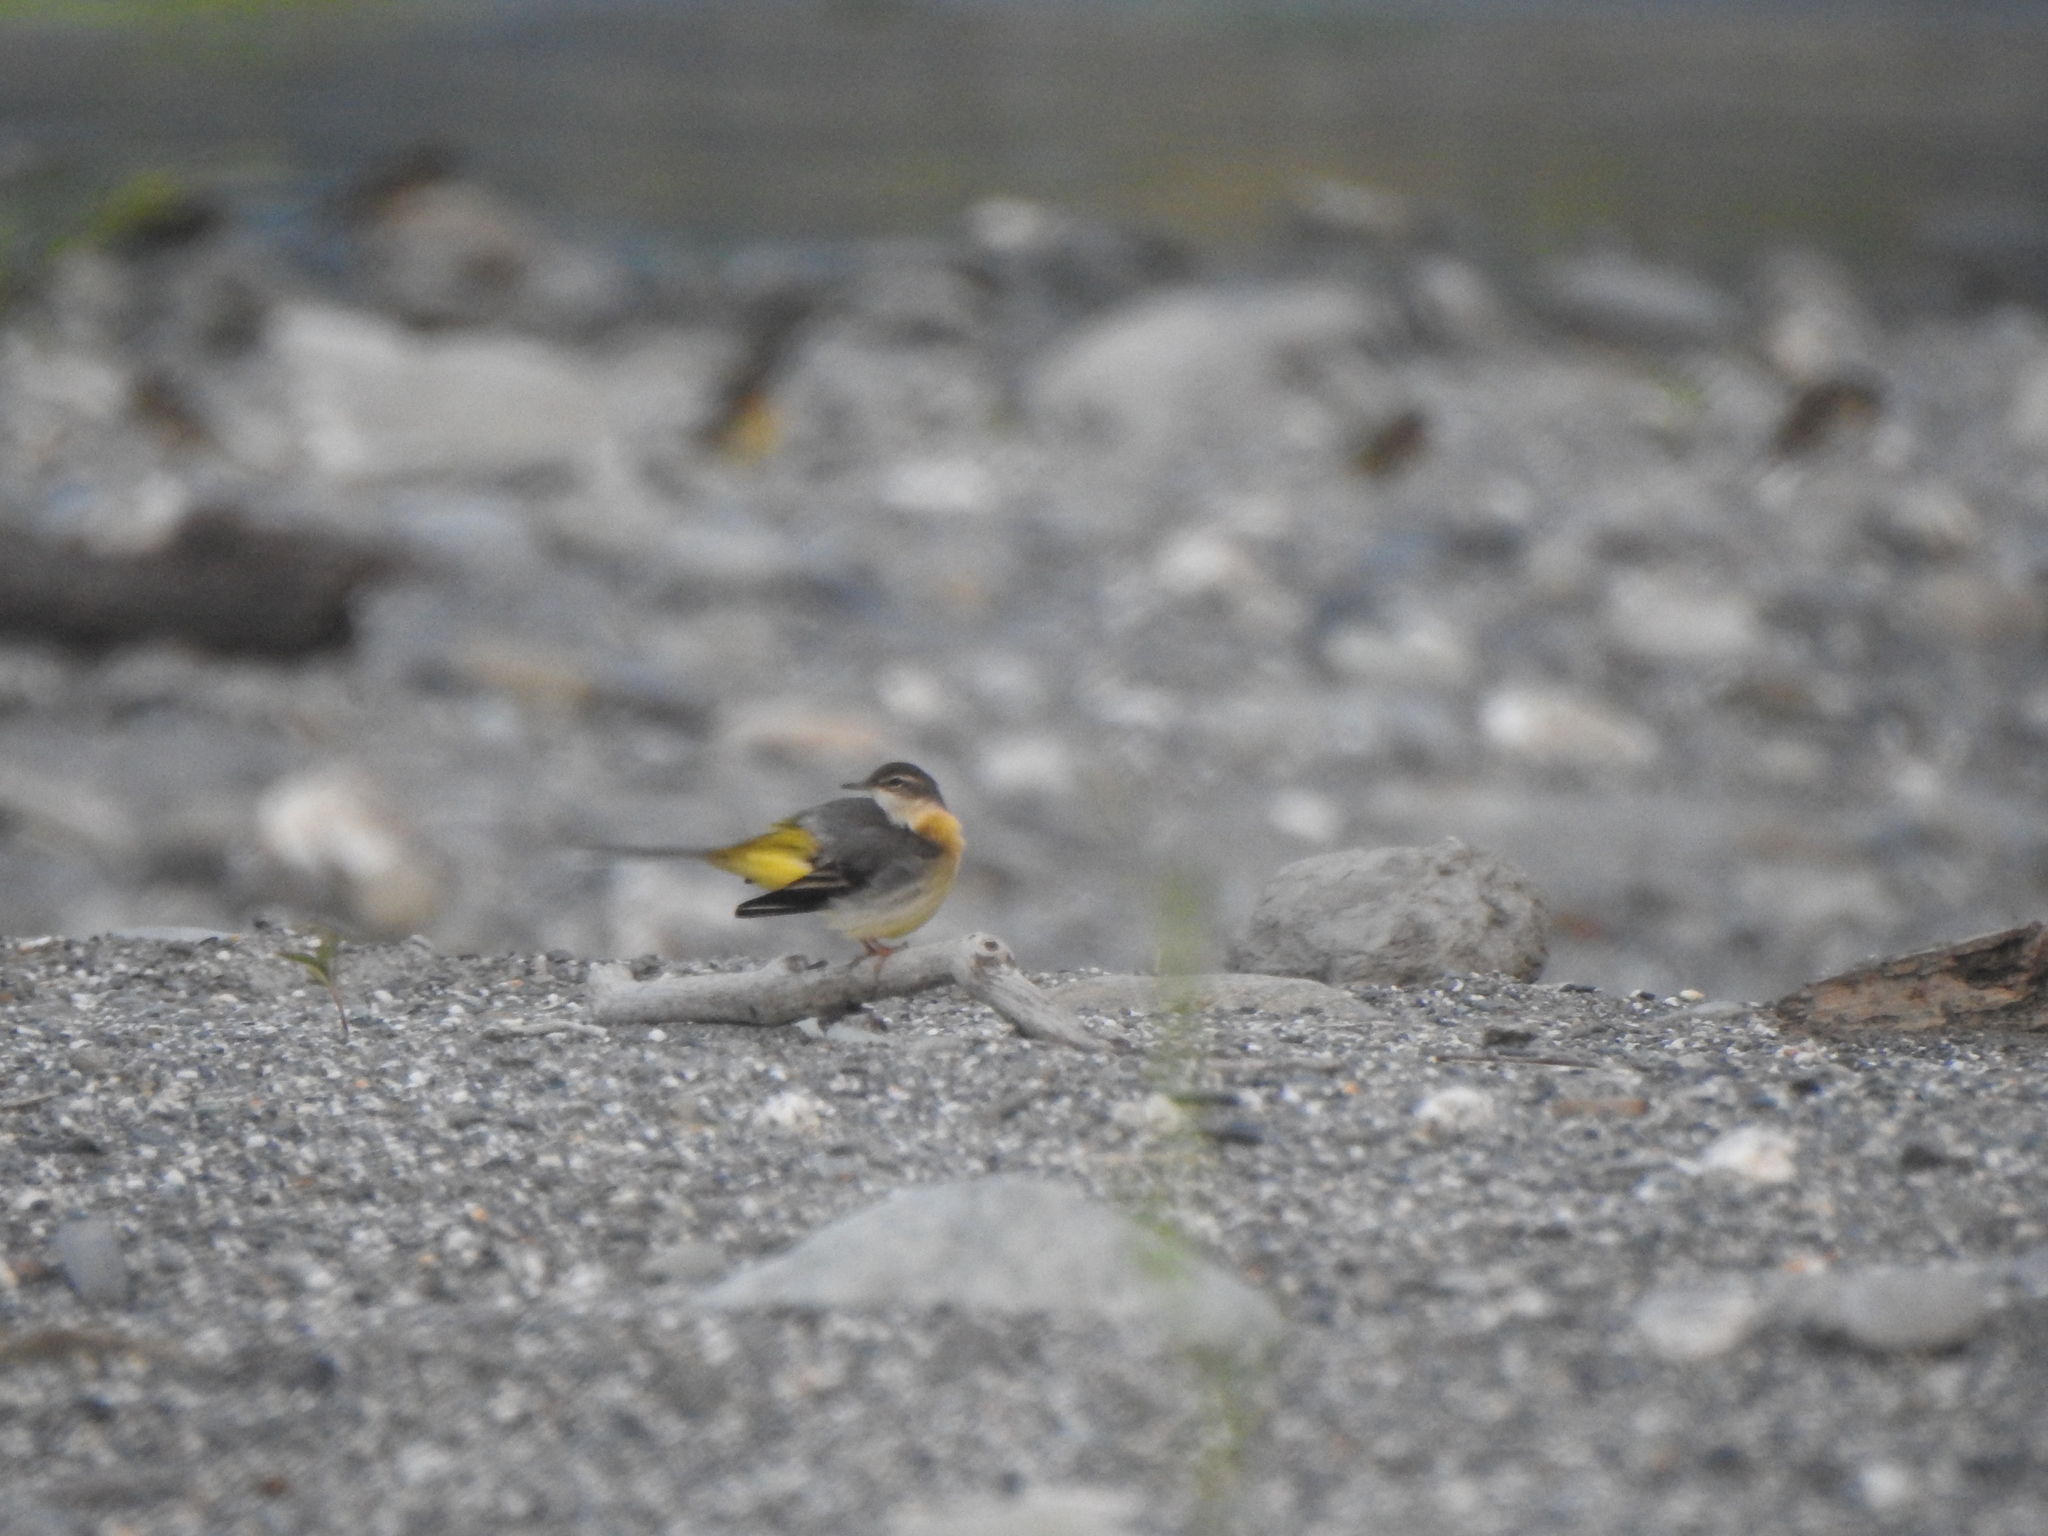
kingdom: Animalia
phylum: Chordata
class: Aves
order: Passeriformes
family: Motacillidae
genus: Motacilla
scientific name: Motacilla cinerea
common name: Grey wagtail
